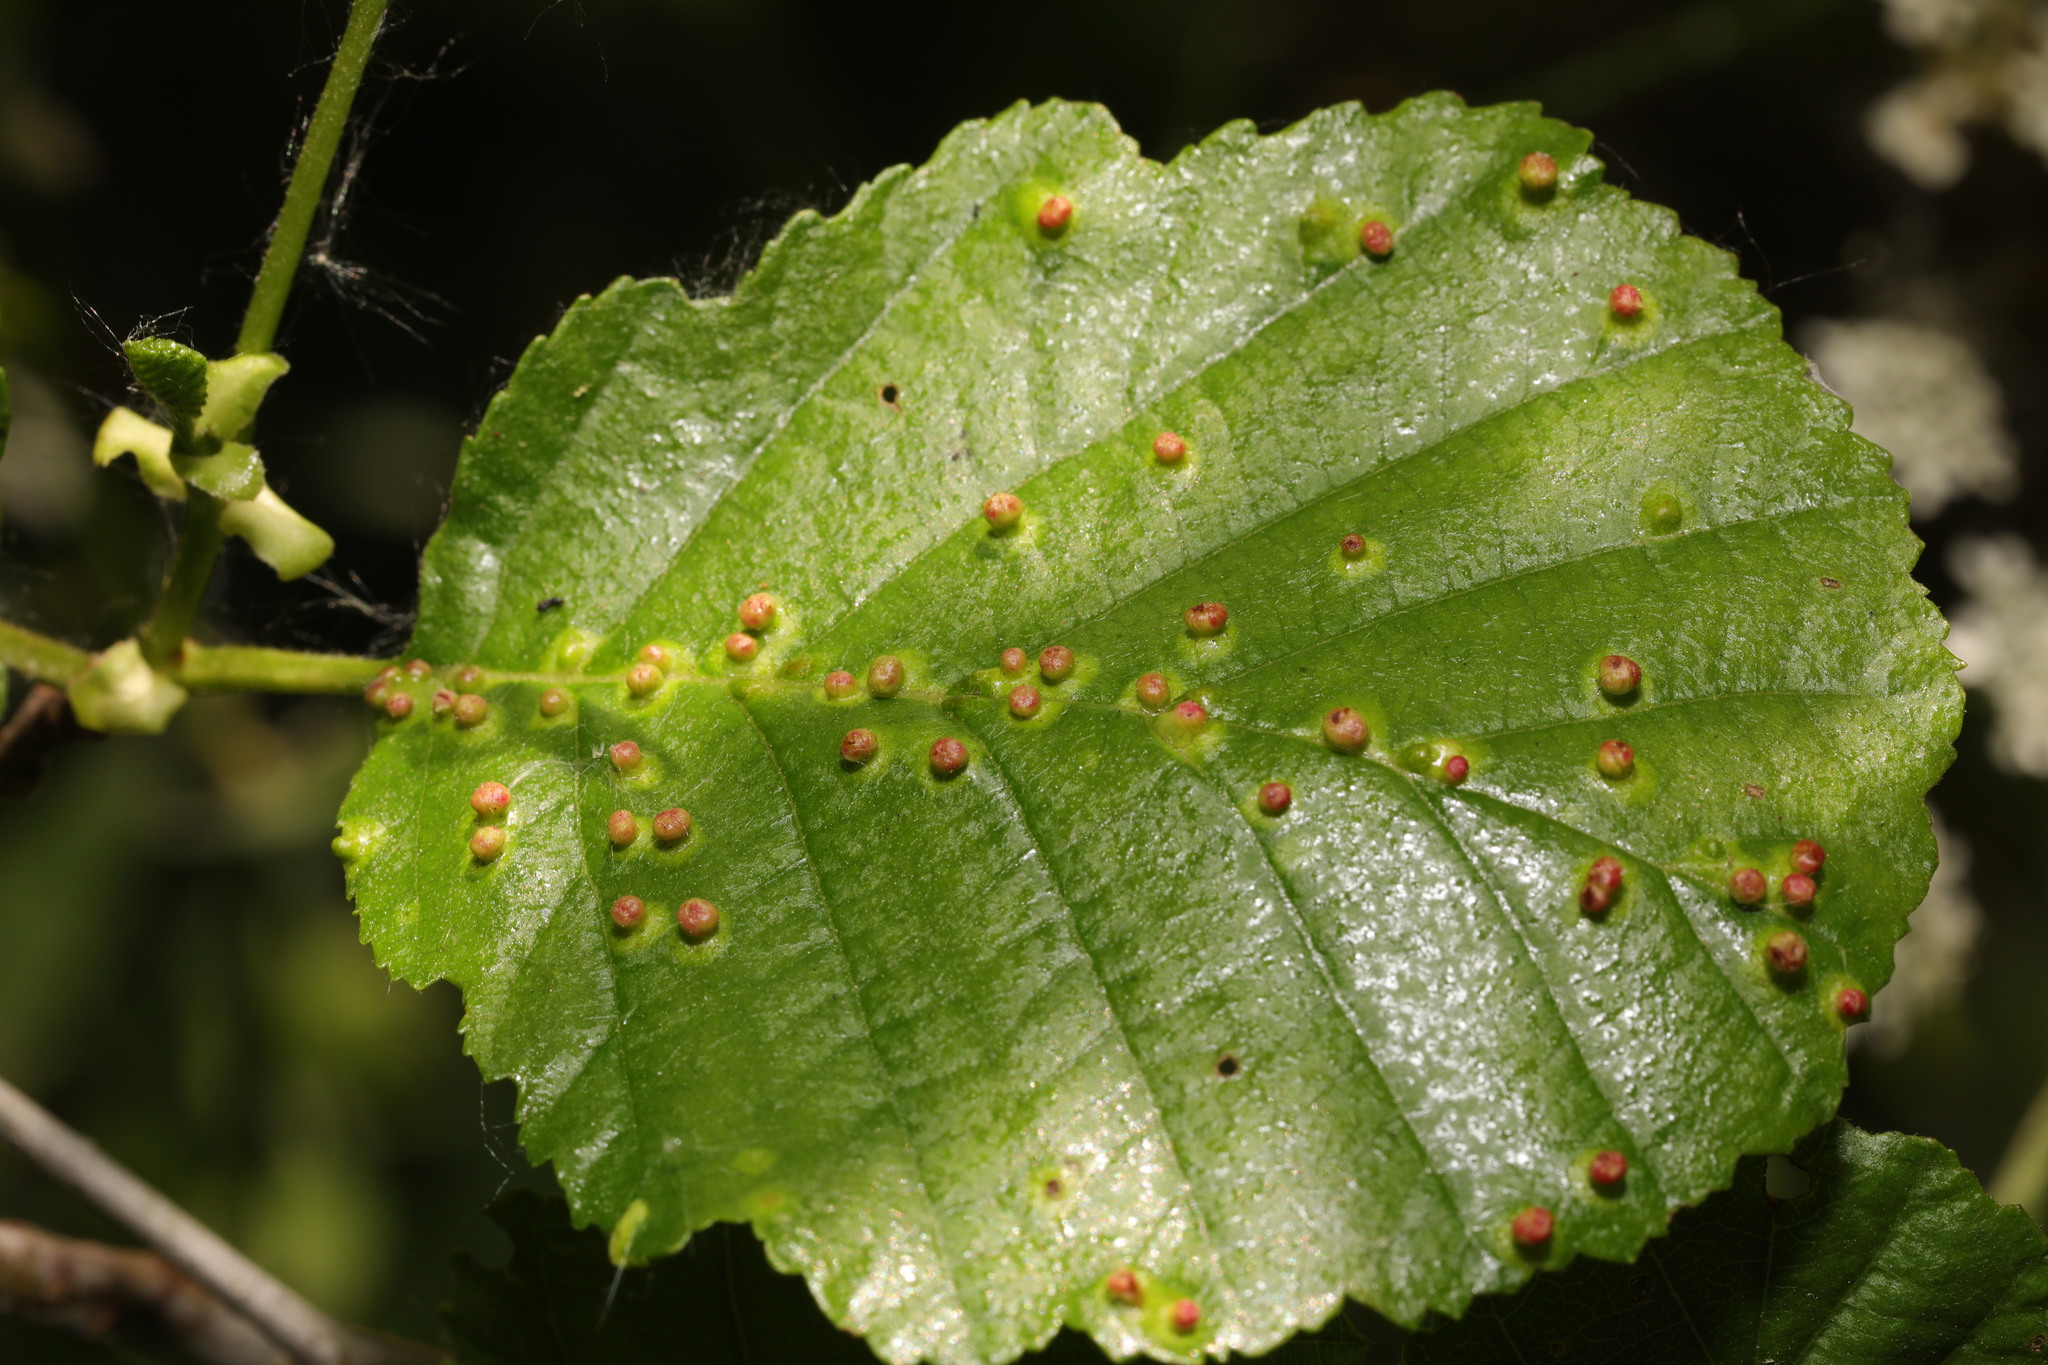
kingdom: Animalia
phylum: Arthropoda
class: Arachnida
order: Trombidiformes
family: Eriophyidae
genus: Eriophyes
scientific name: Eriophyes laevis
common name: Alder leaf gall mite
